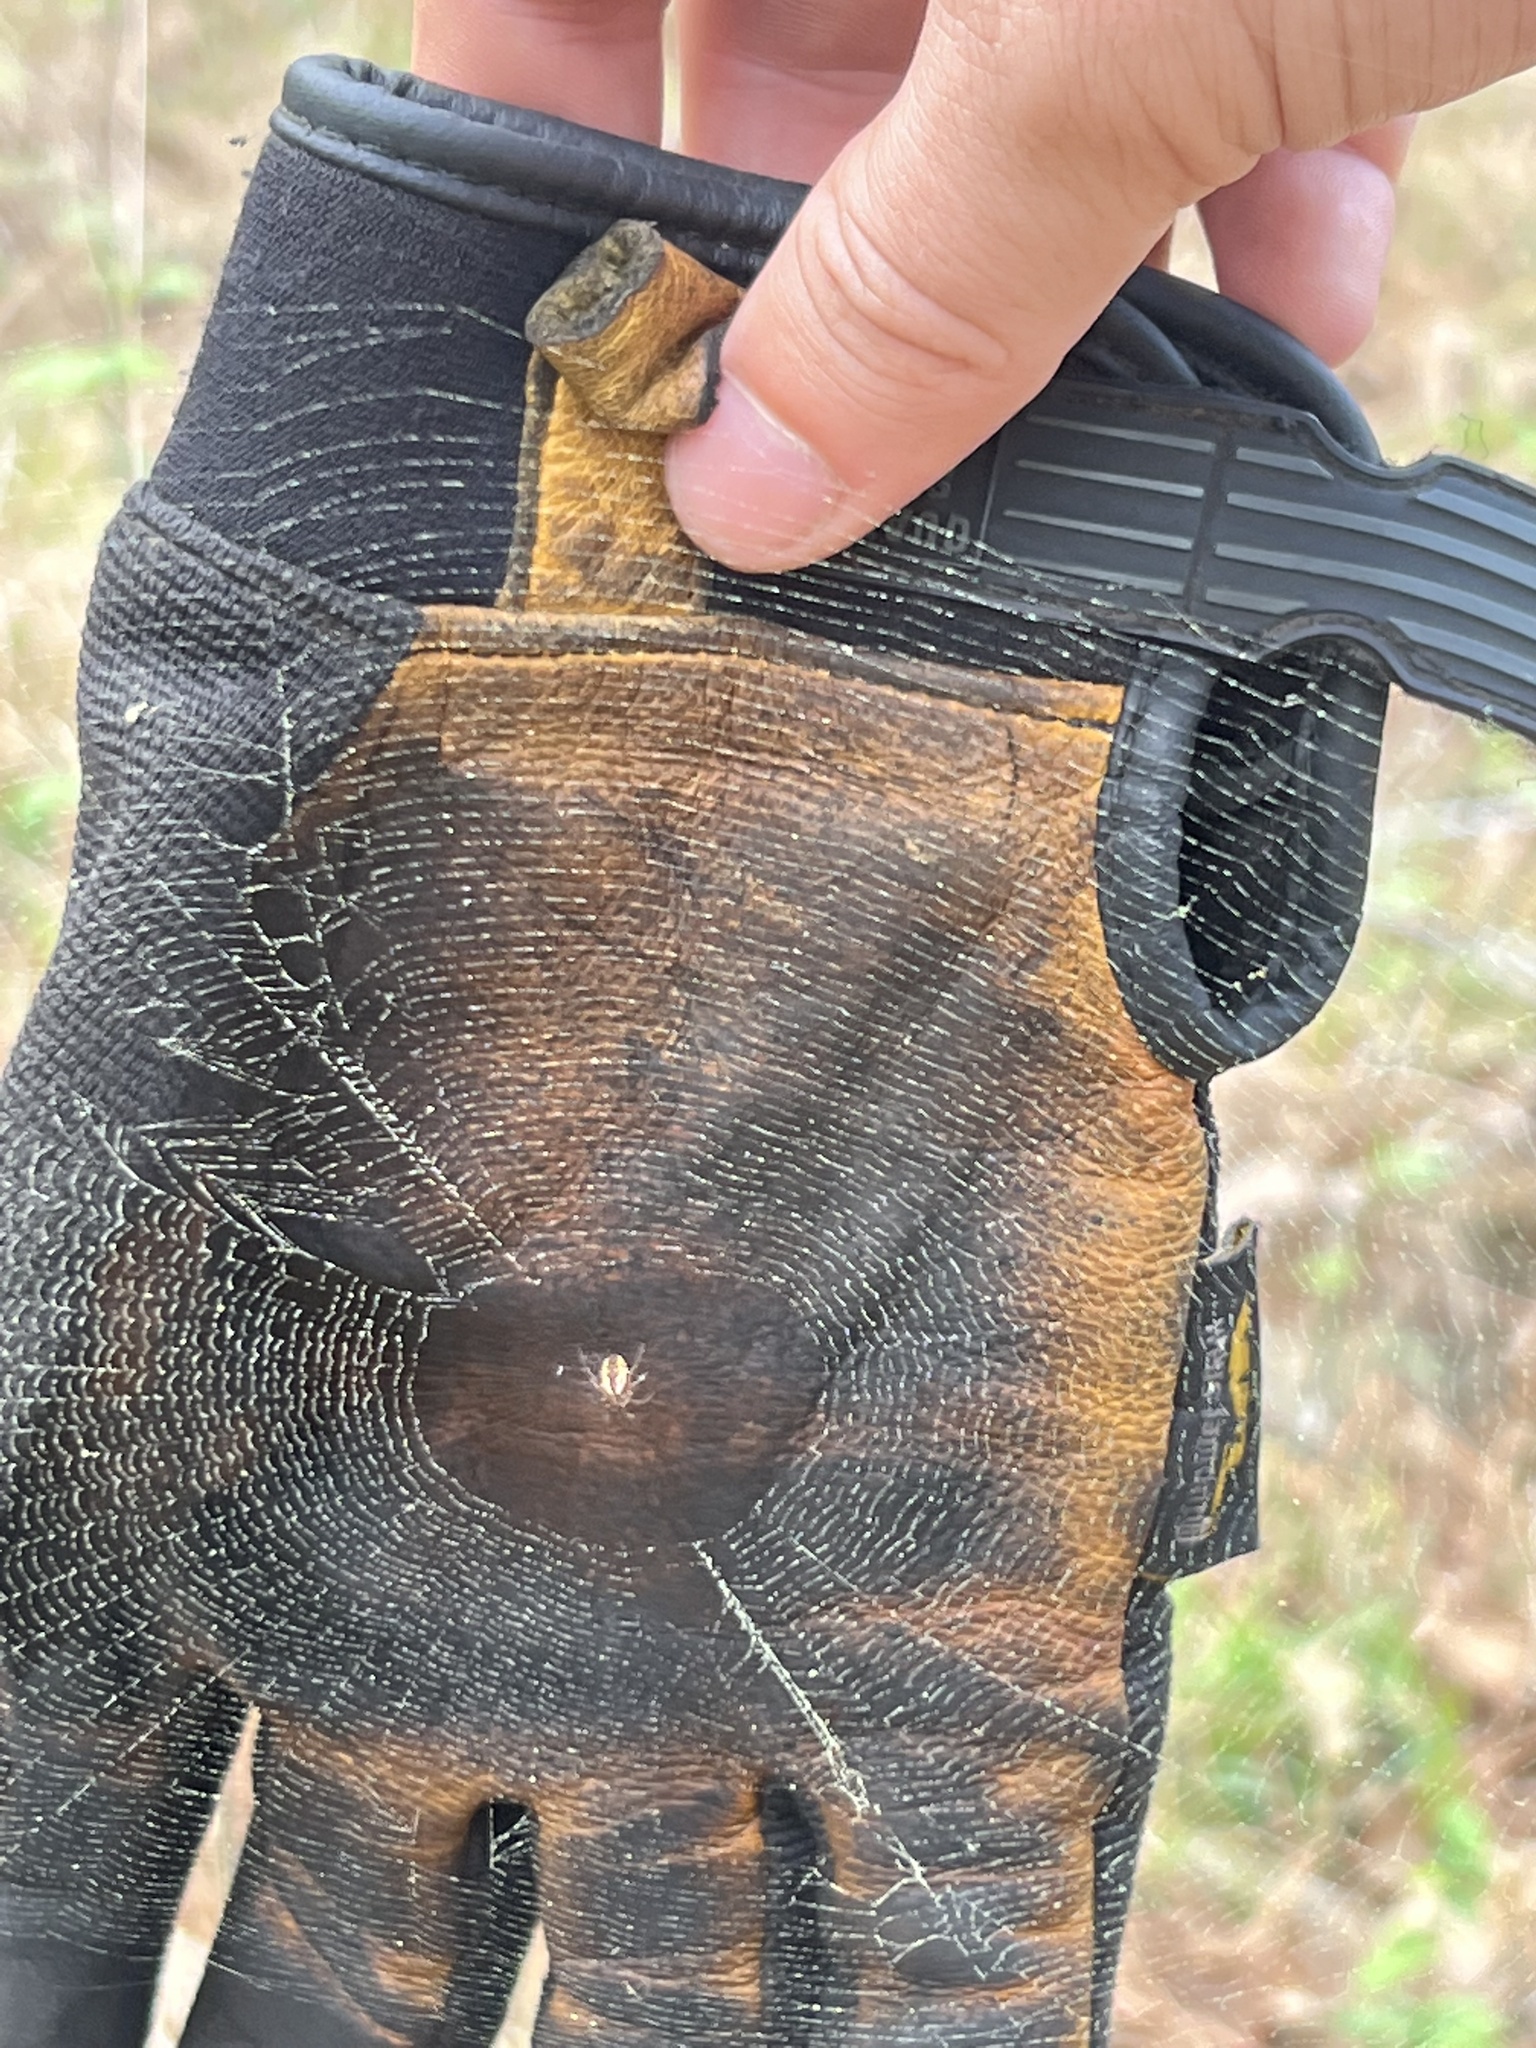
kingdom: Animalia
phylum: Arthropoda
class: Arachnida
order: Araneae
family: Araneidae
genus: Mangora
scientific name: Mangora placida
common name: Tuft-legged orbweaver
